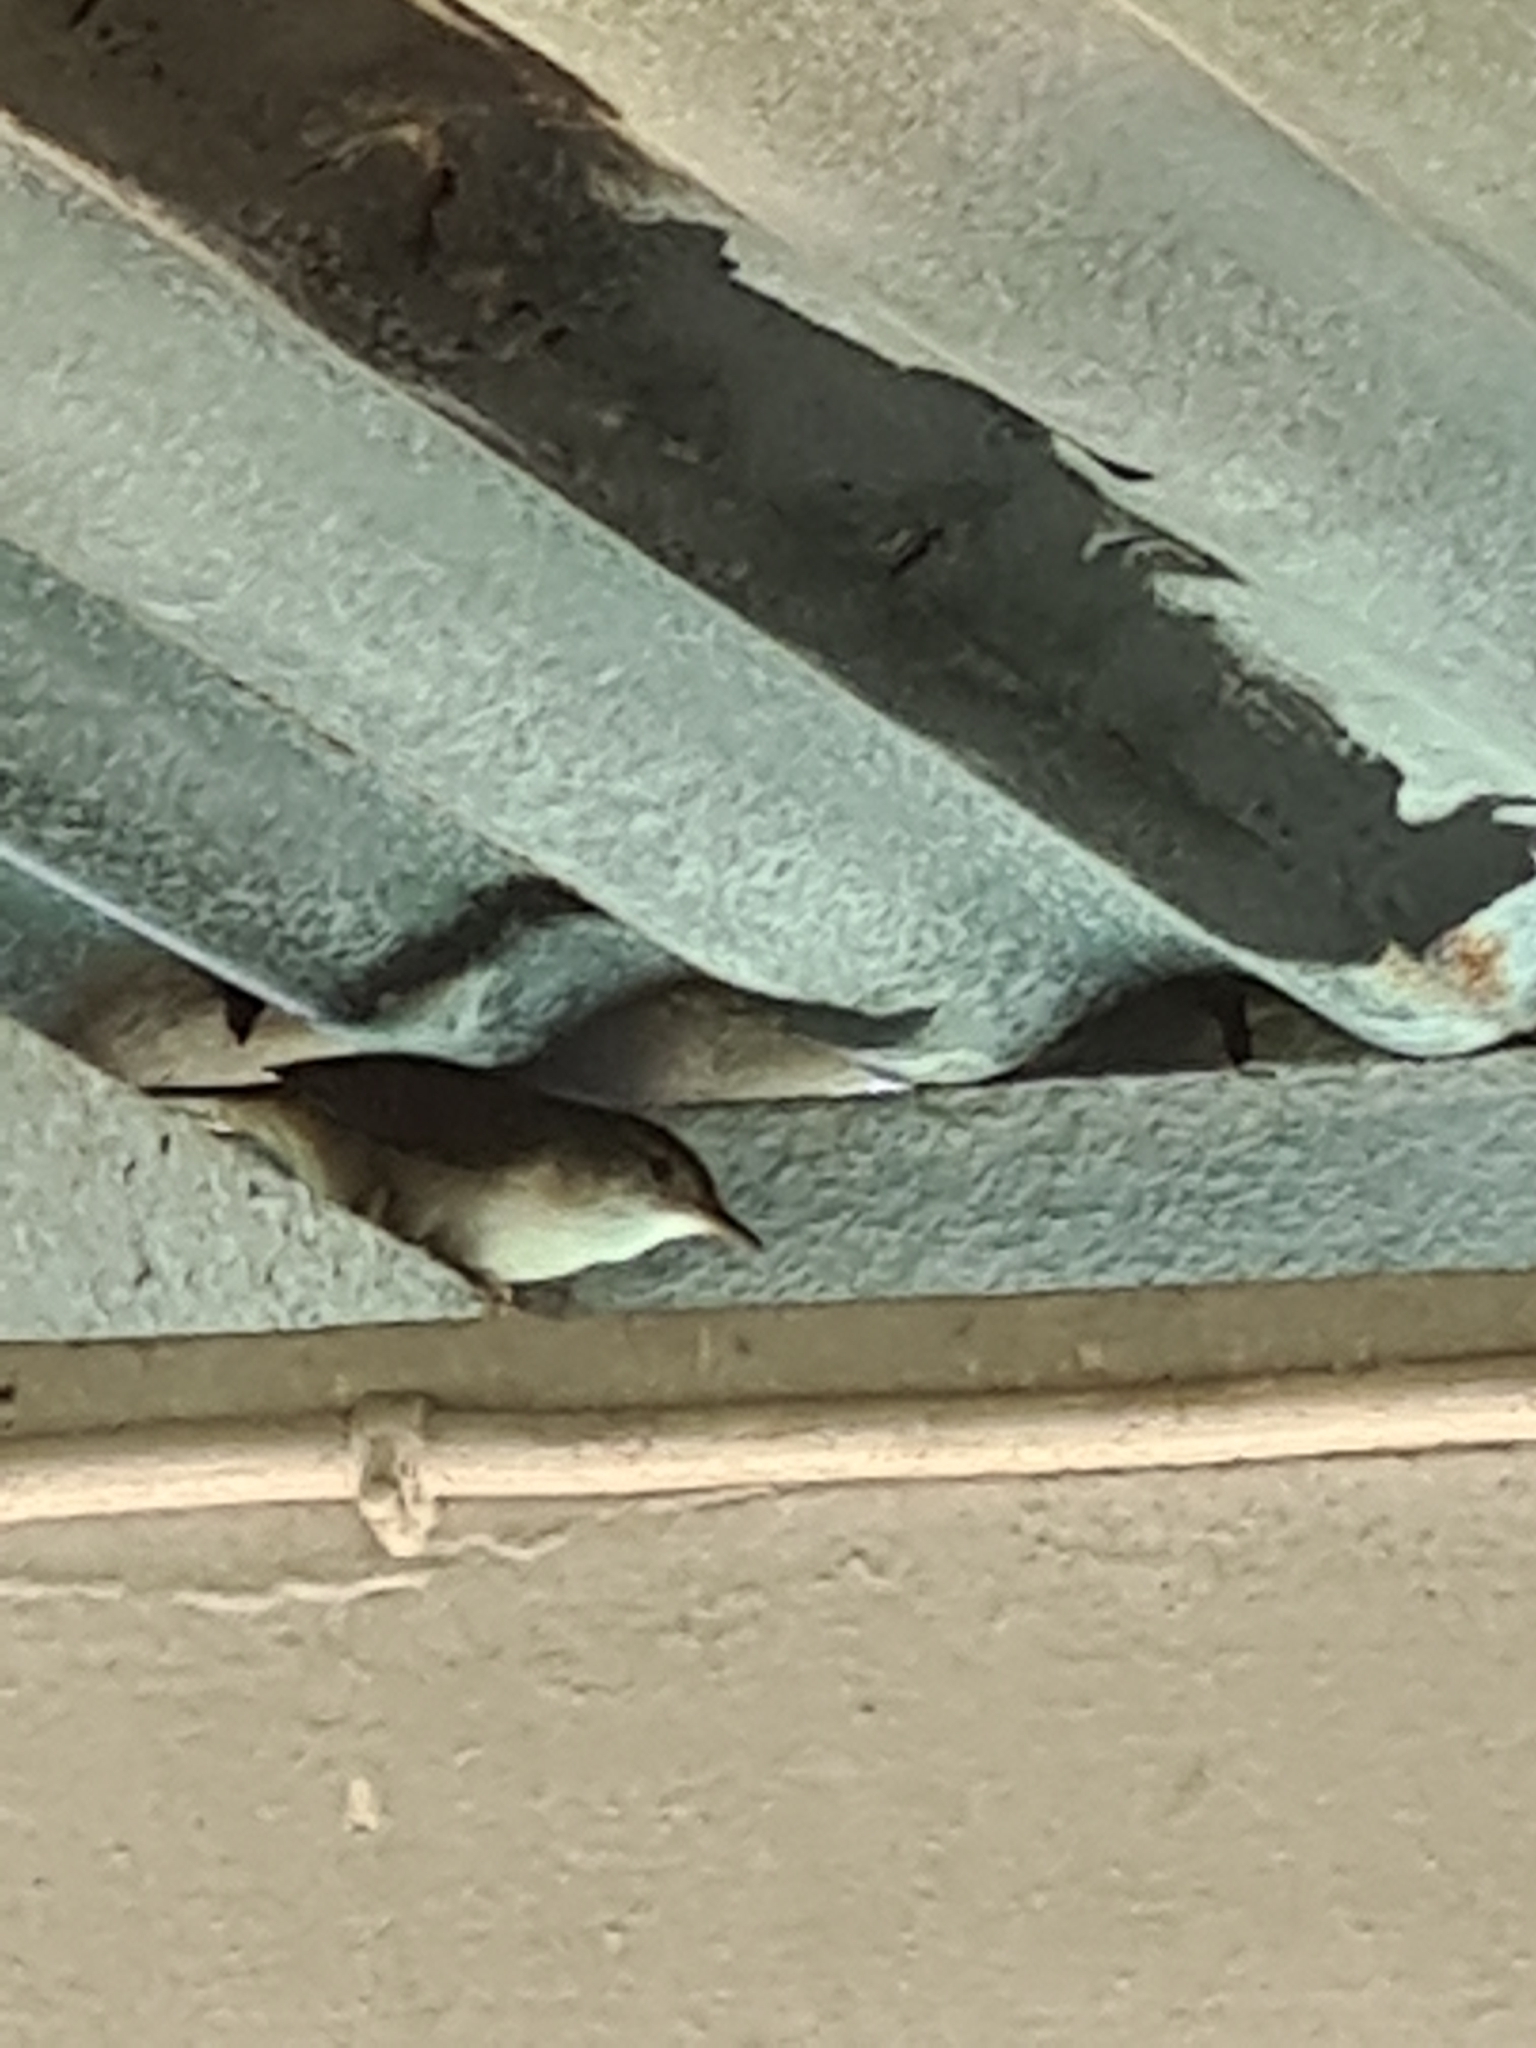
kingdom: Animalia
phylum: Chordata
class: Aves
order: Passeriformes
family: Troglodytidae
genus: Troglodytes
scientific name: Troglodytes aedon
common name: House wren
